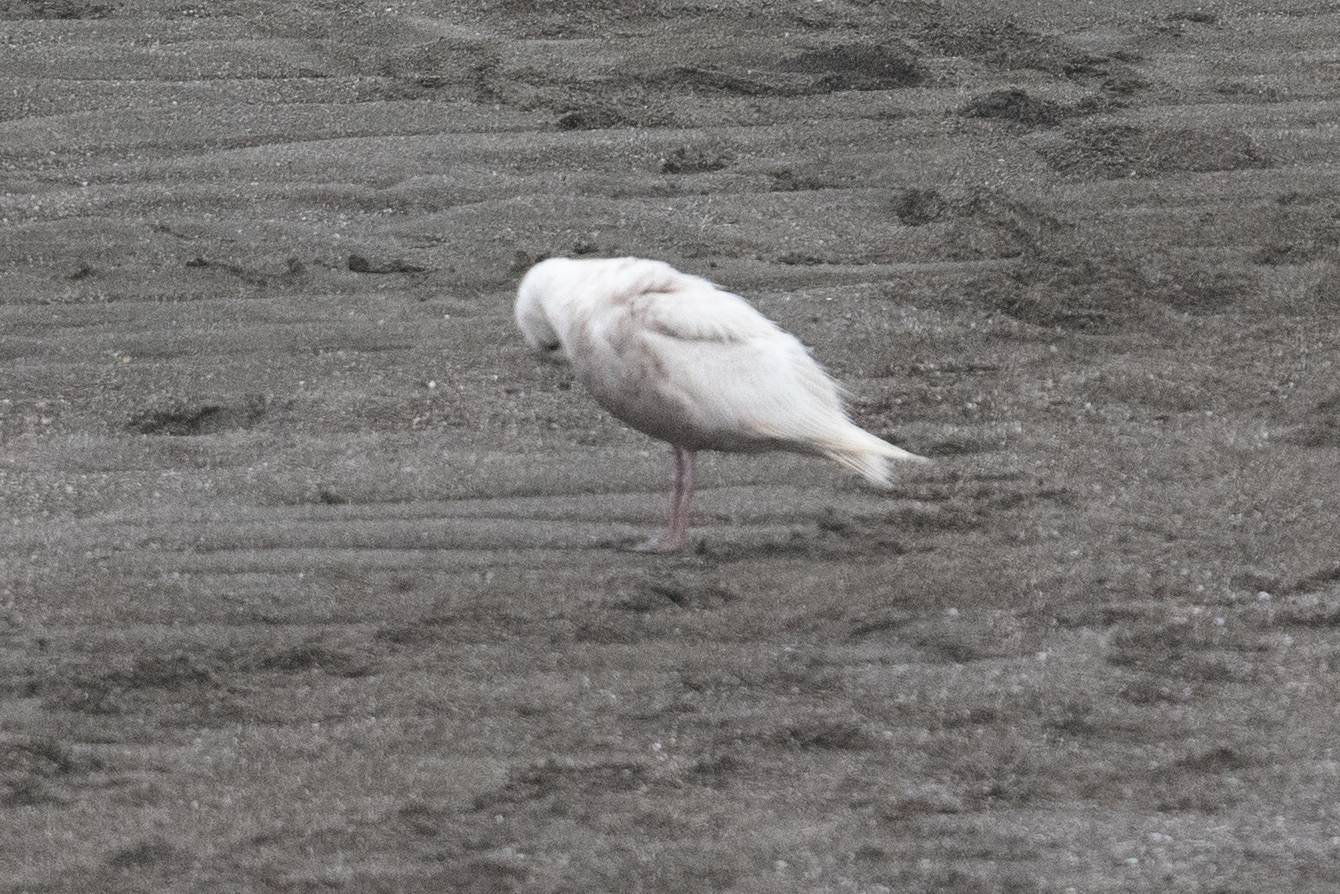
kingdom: Animalia
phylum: Chordata
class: Aves
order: Charadriiformes
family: Laridae
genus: Larus
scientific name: Larus glaucescens
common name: Glaucous-winged gull
